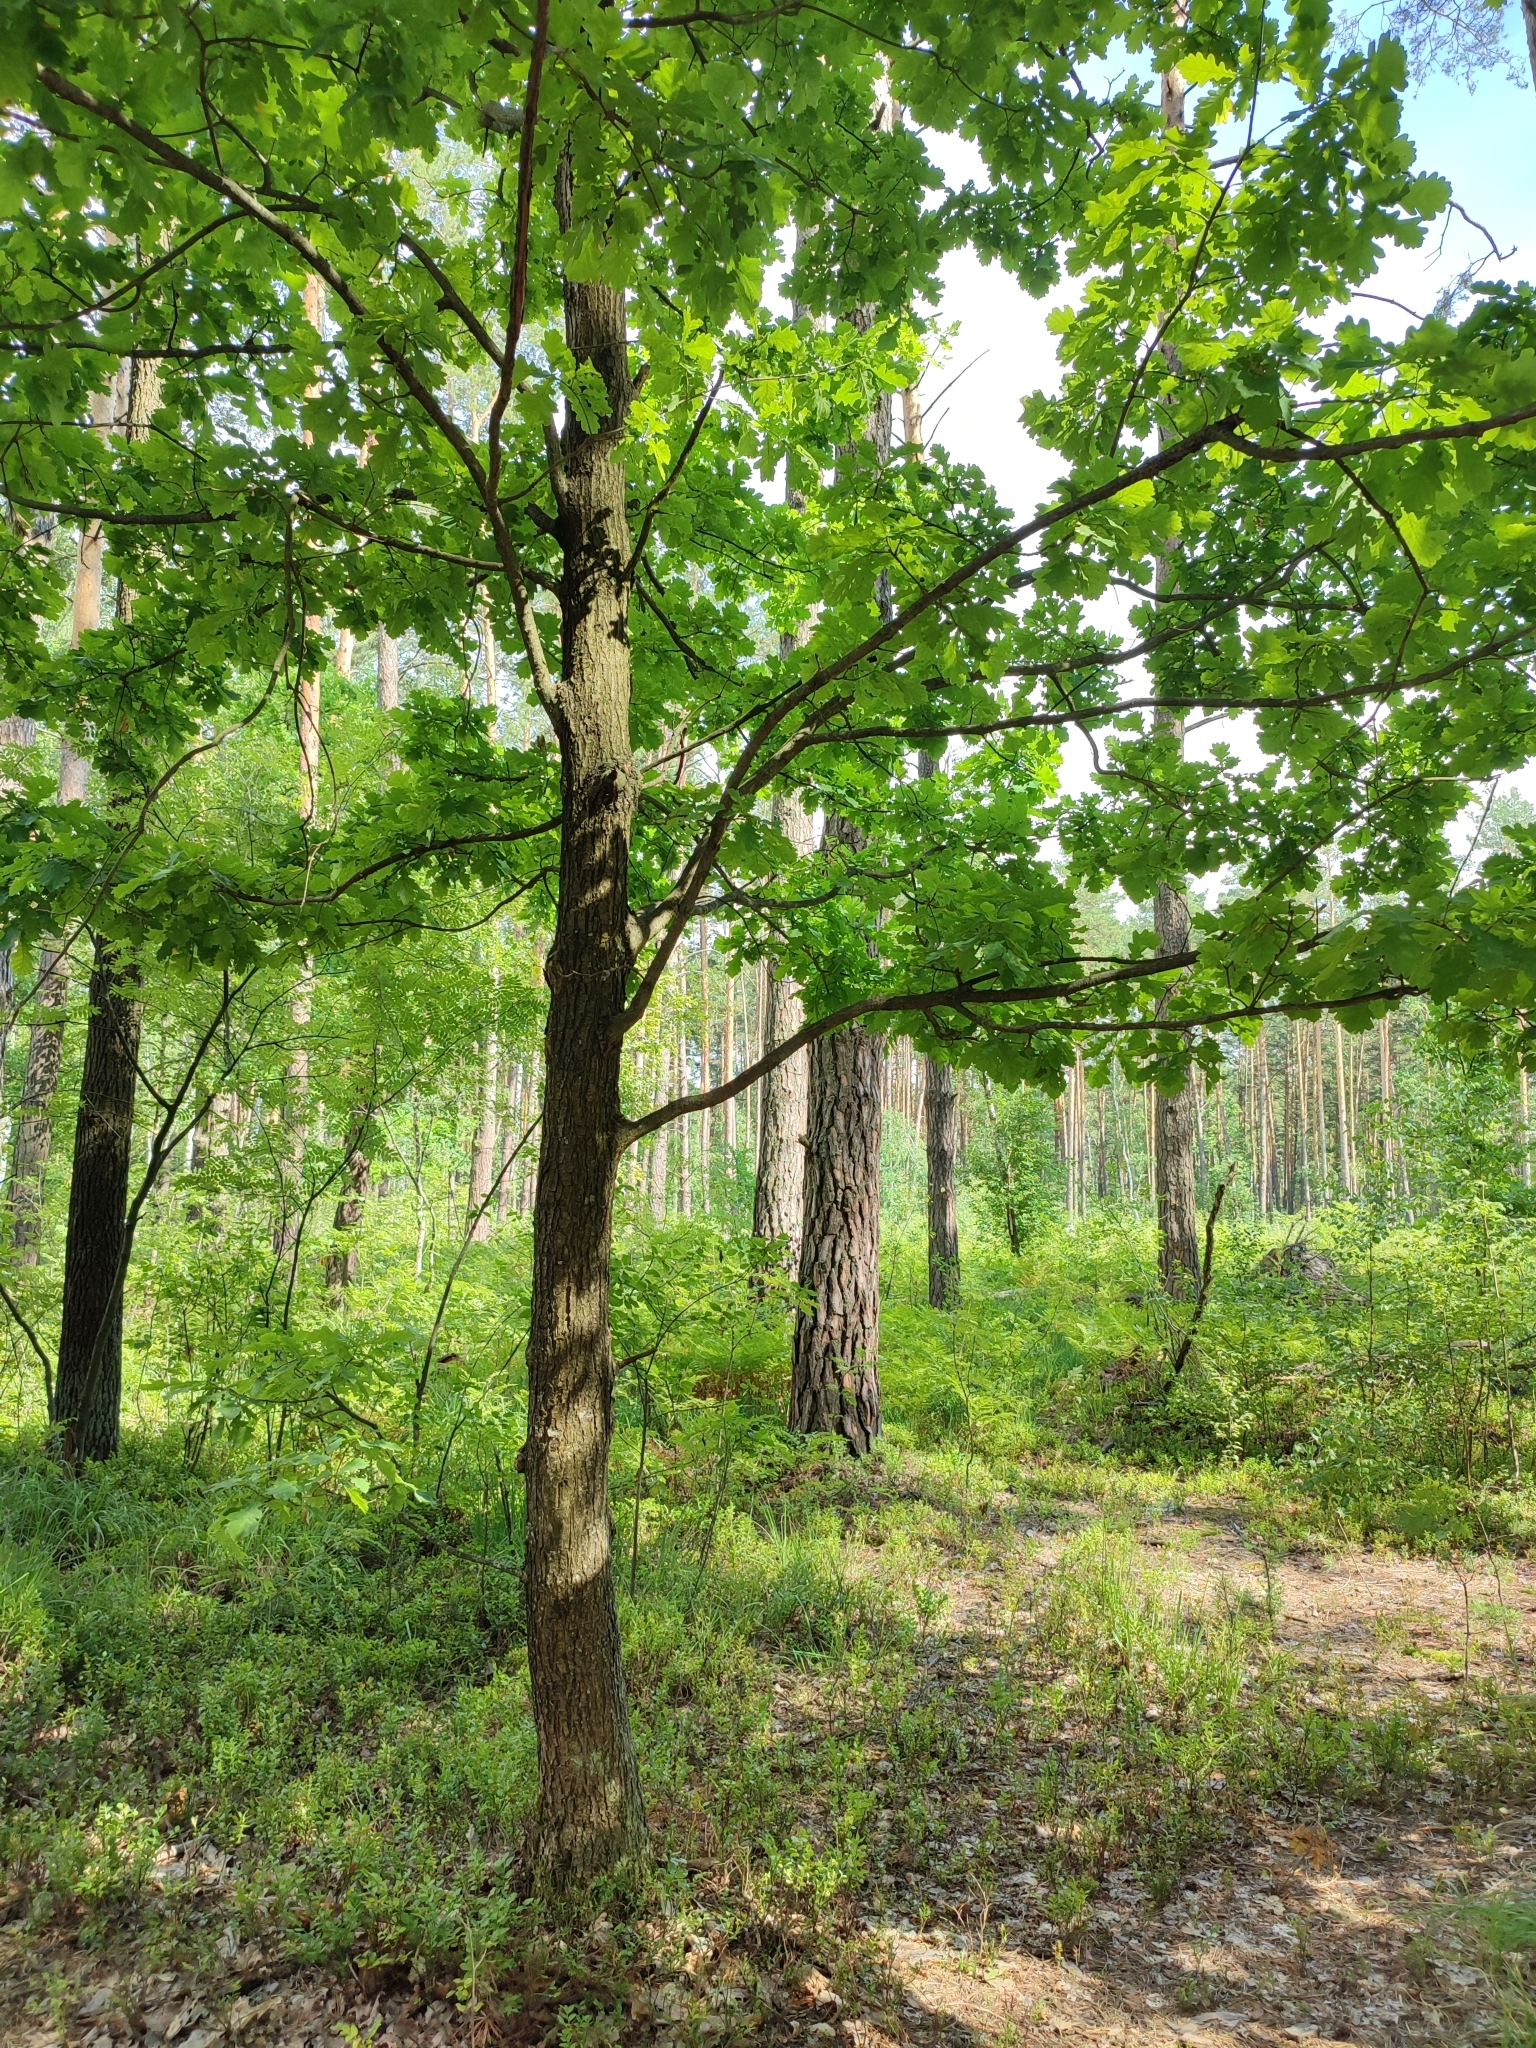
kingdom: Plantae
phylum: Tracheophyta
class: Magnoliopsida
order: Fagales
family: Fagaceae
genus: Quercus
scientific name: Quercus robur
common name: Pedunculate oak
